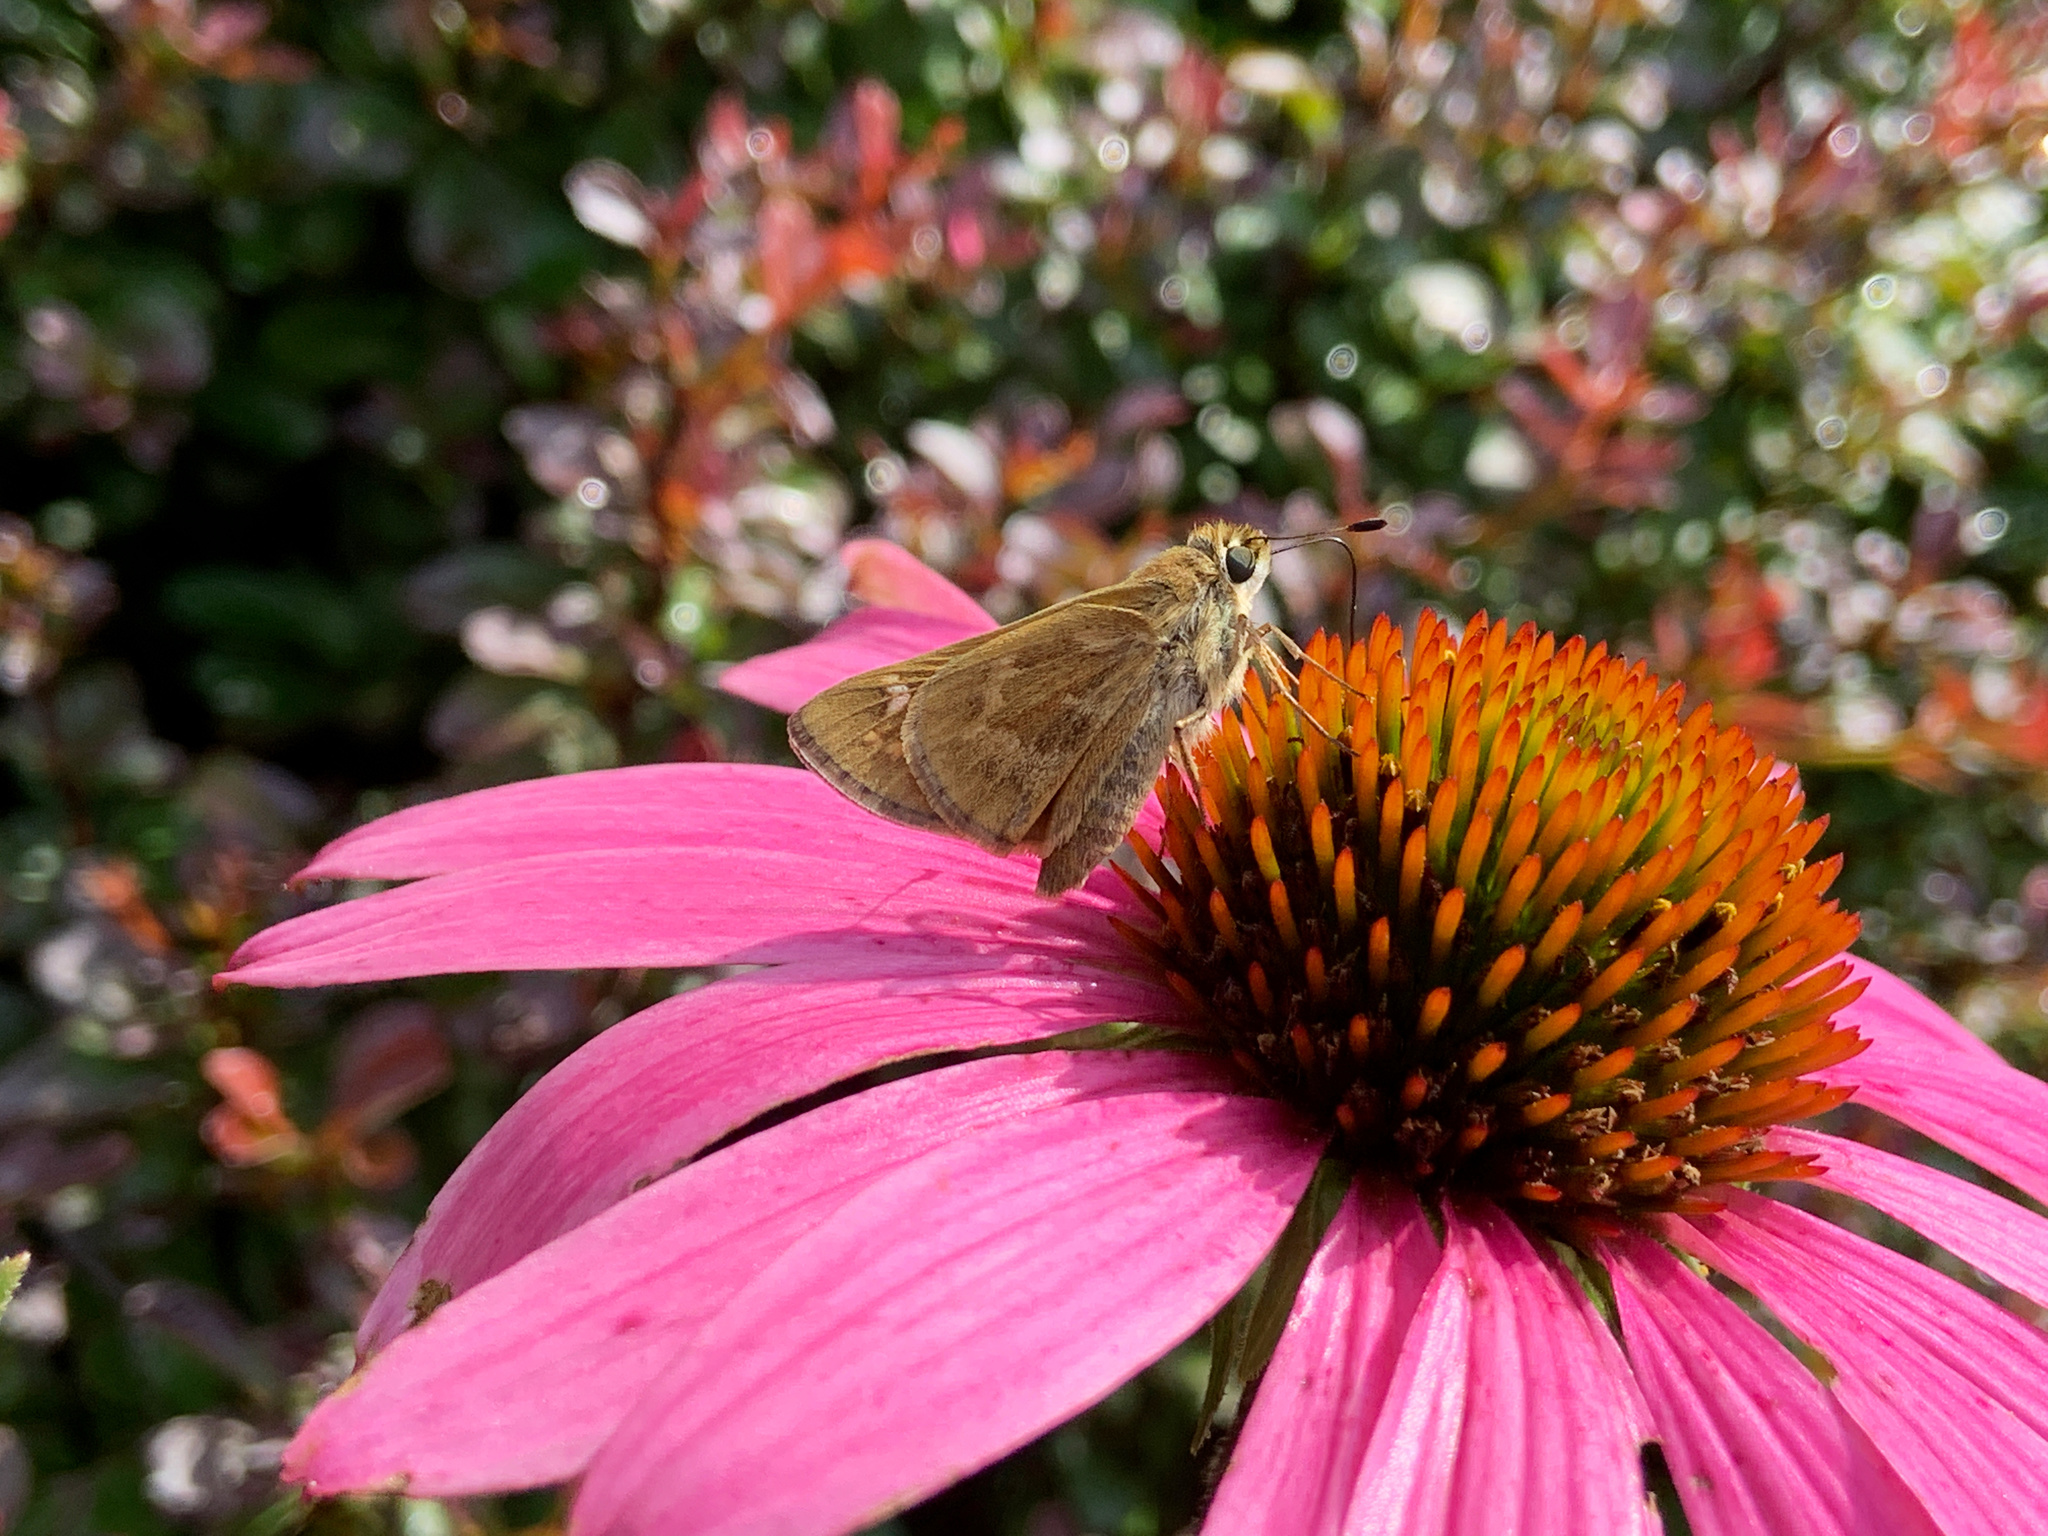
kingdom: Animalia
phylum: Arthropoda
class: Insecta
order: Lepidoptera
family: Hesperiidae
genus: Vernia
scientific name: Vernia verna
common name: Little glassywing
